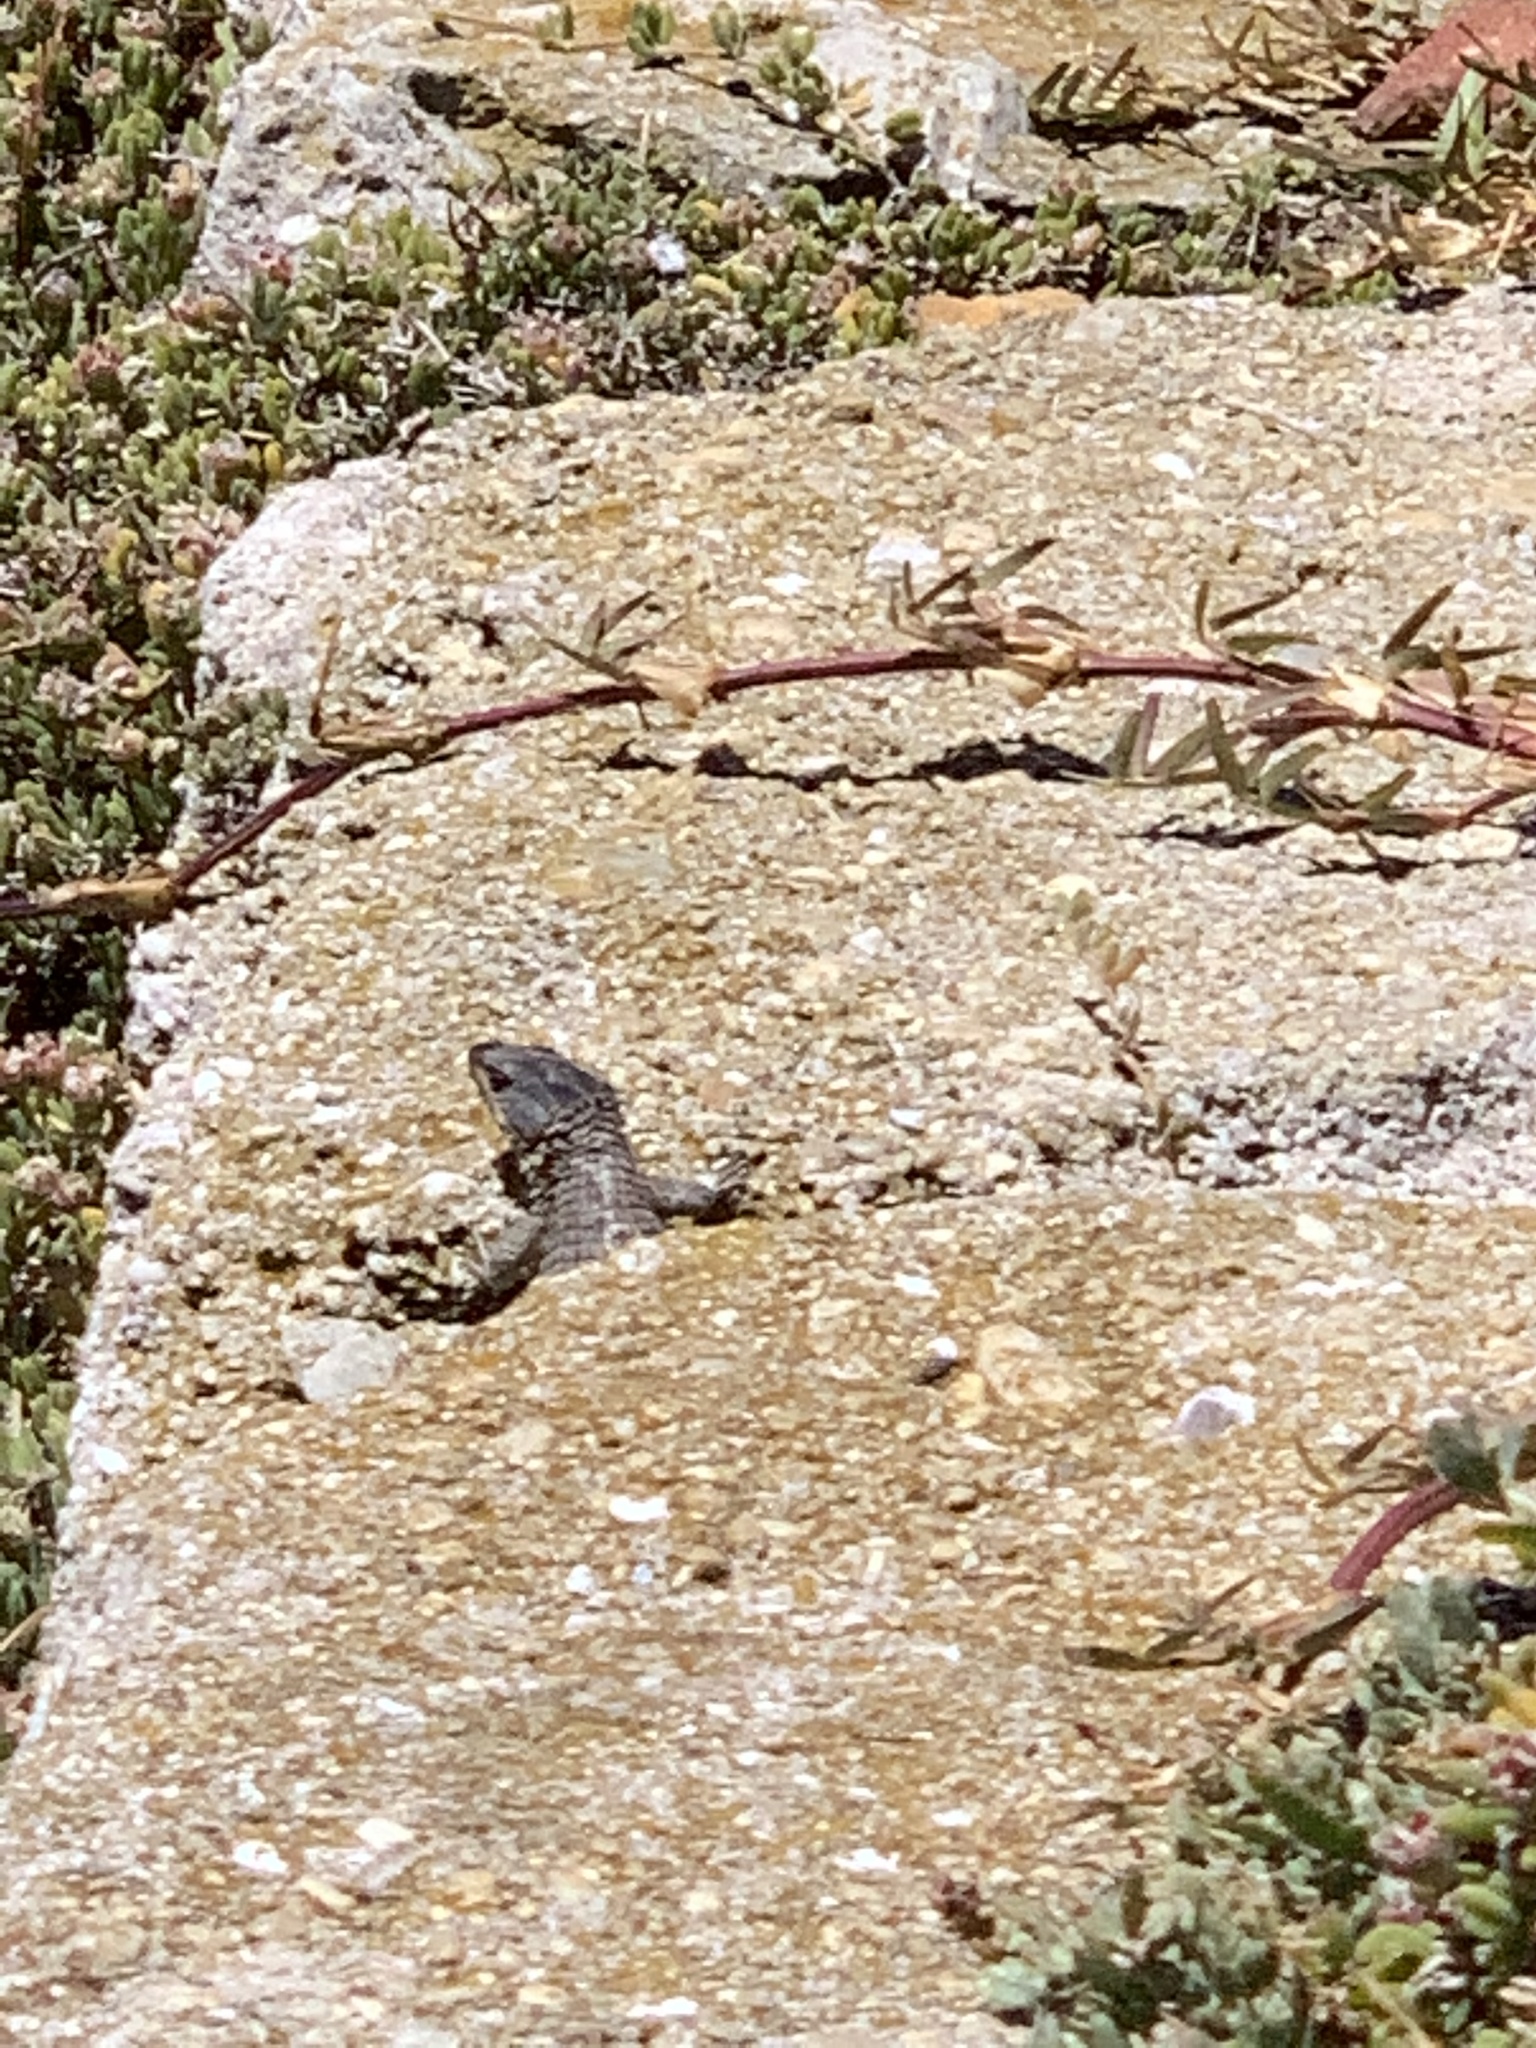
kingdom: Animalia
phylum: Chordata
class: Squamata
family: Cordylidae
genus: Cordylus
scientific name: Cordylus cordylus
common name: Cape girdled lizard
